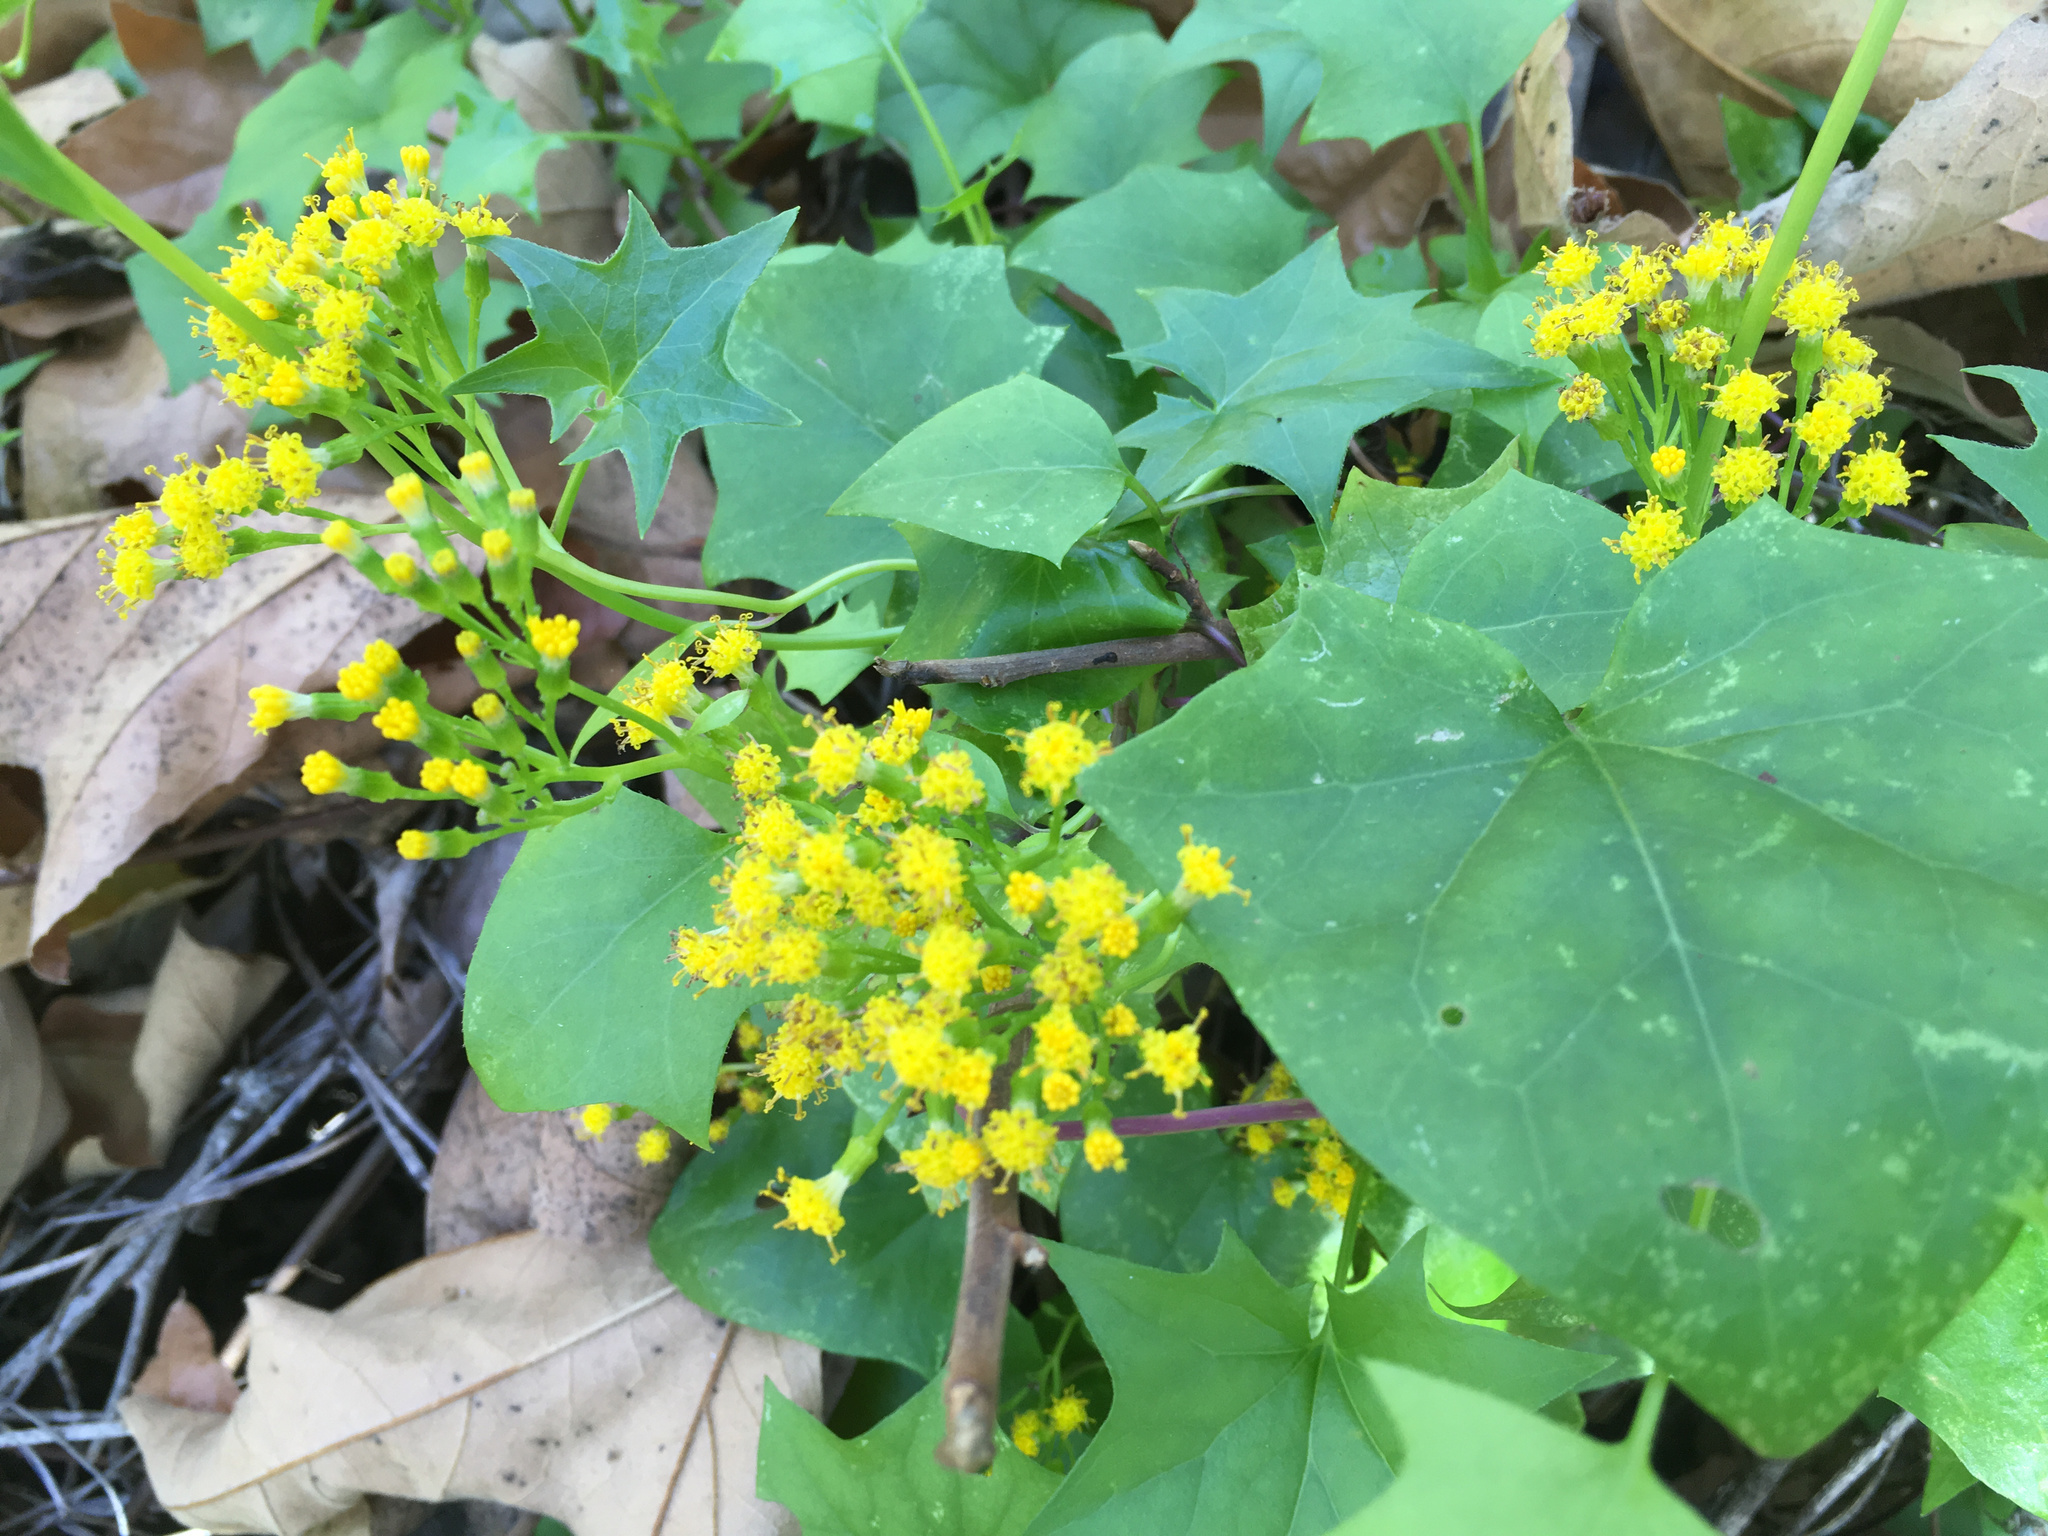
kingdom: Plantae
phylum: Tracheophyta
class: Magnoliopsida
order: Asterales
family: Asteraceae
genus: Delairea
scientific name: Delairea odorata
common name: Cape-ivy
